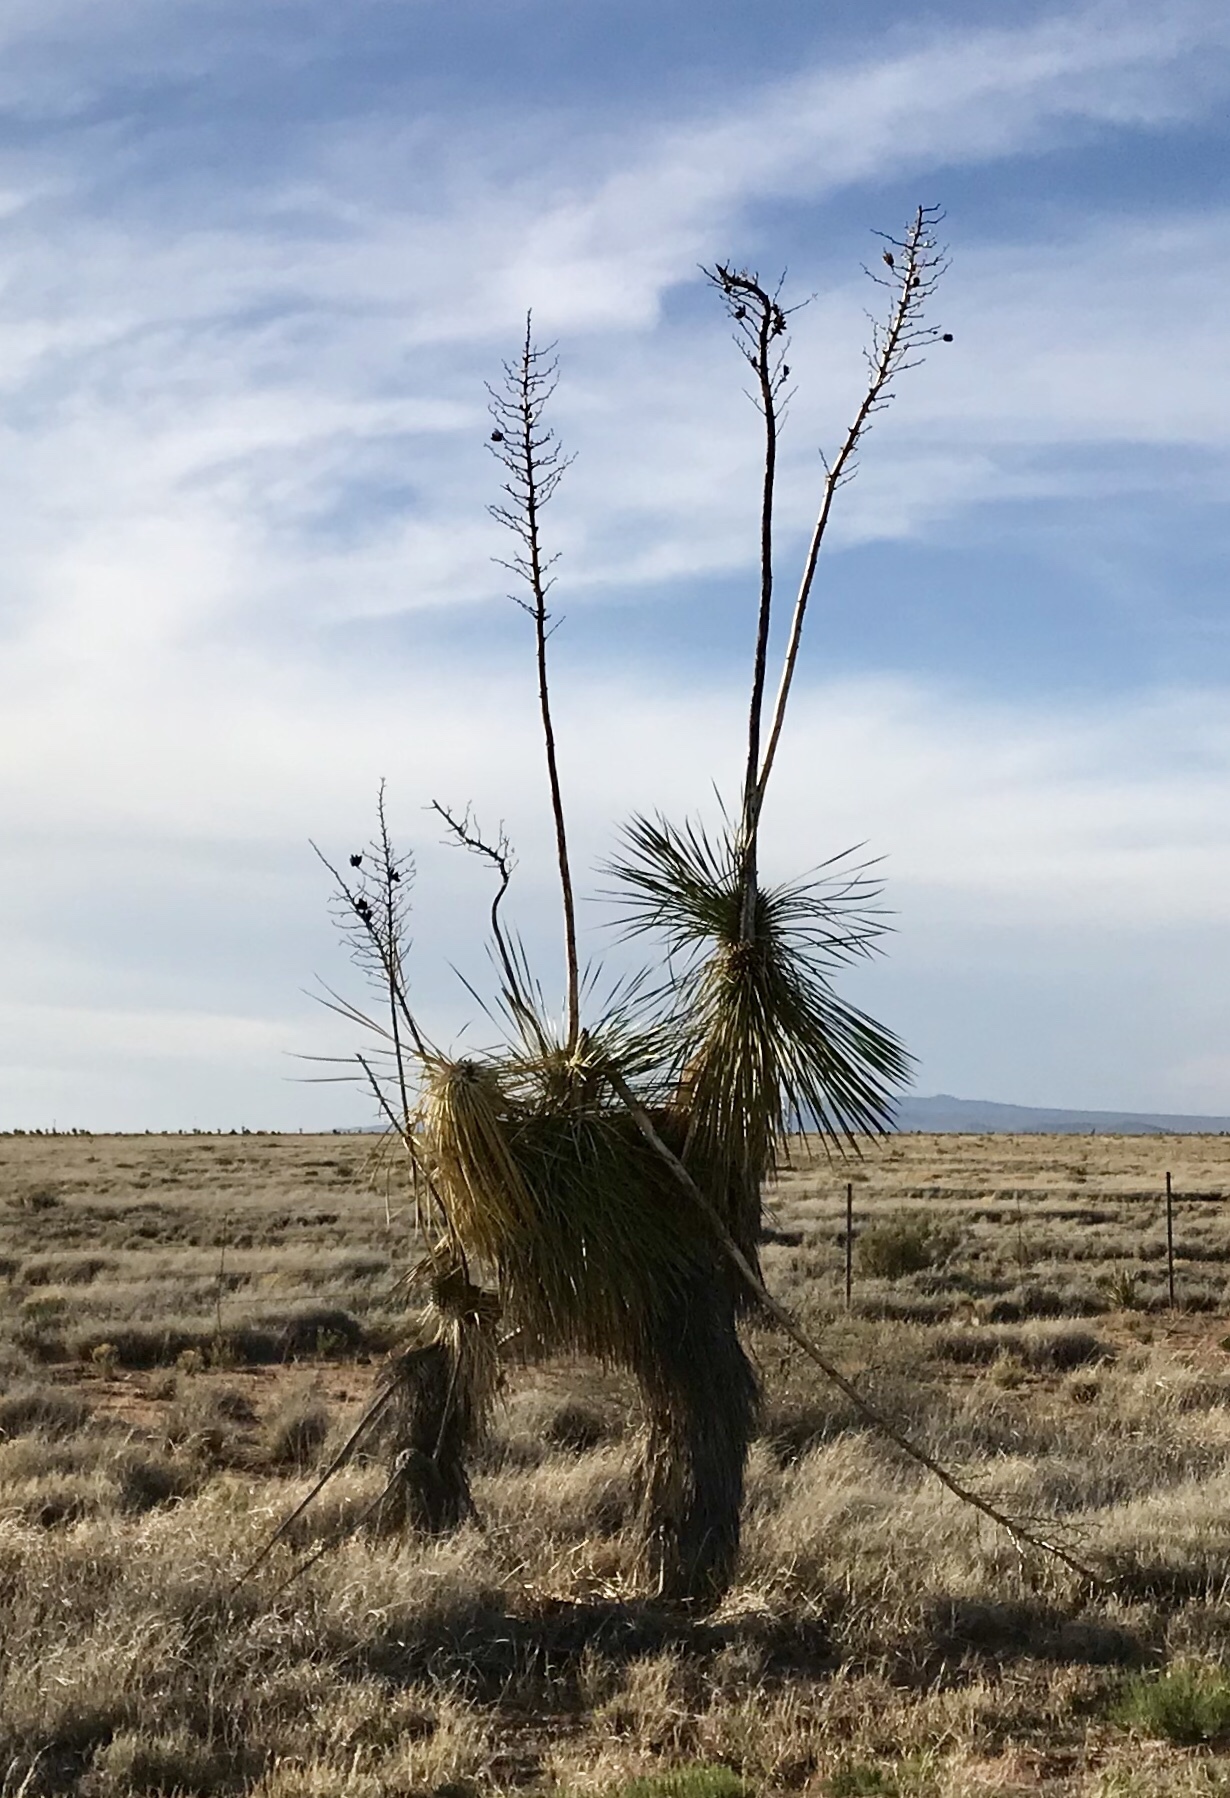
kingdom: Plantae
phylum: Tracheophyta
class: Liliopsida
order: Asparagales
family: Asparagaceae
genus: Yucca
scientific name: Yucca elata
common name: Palmella
